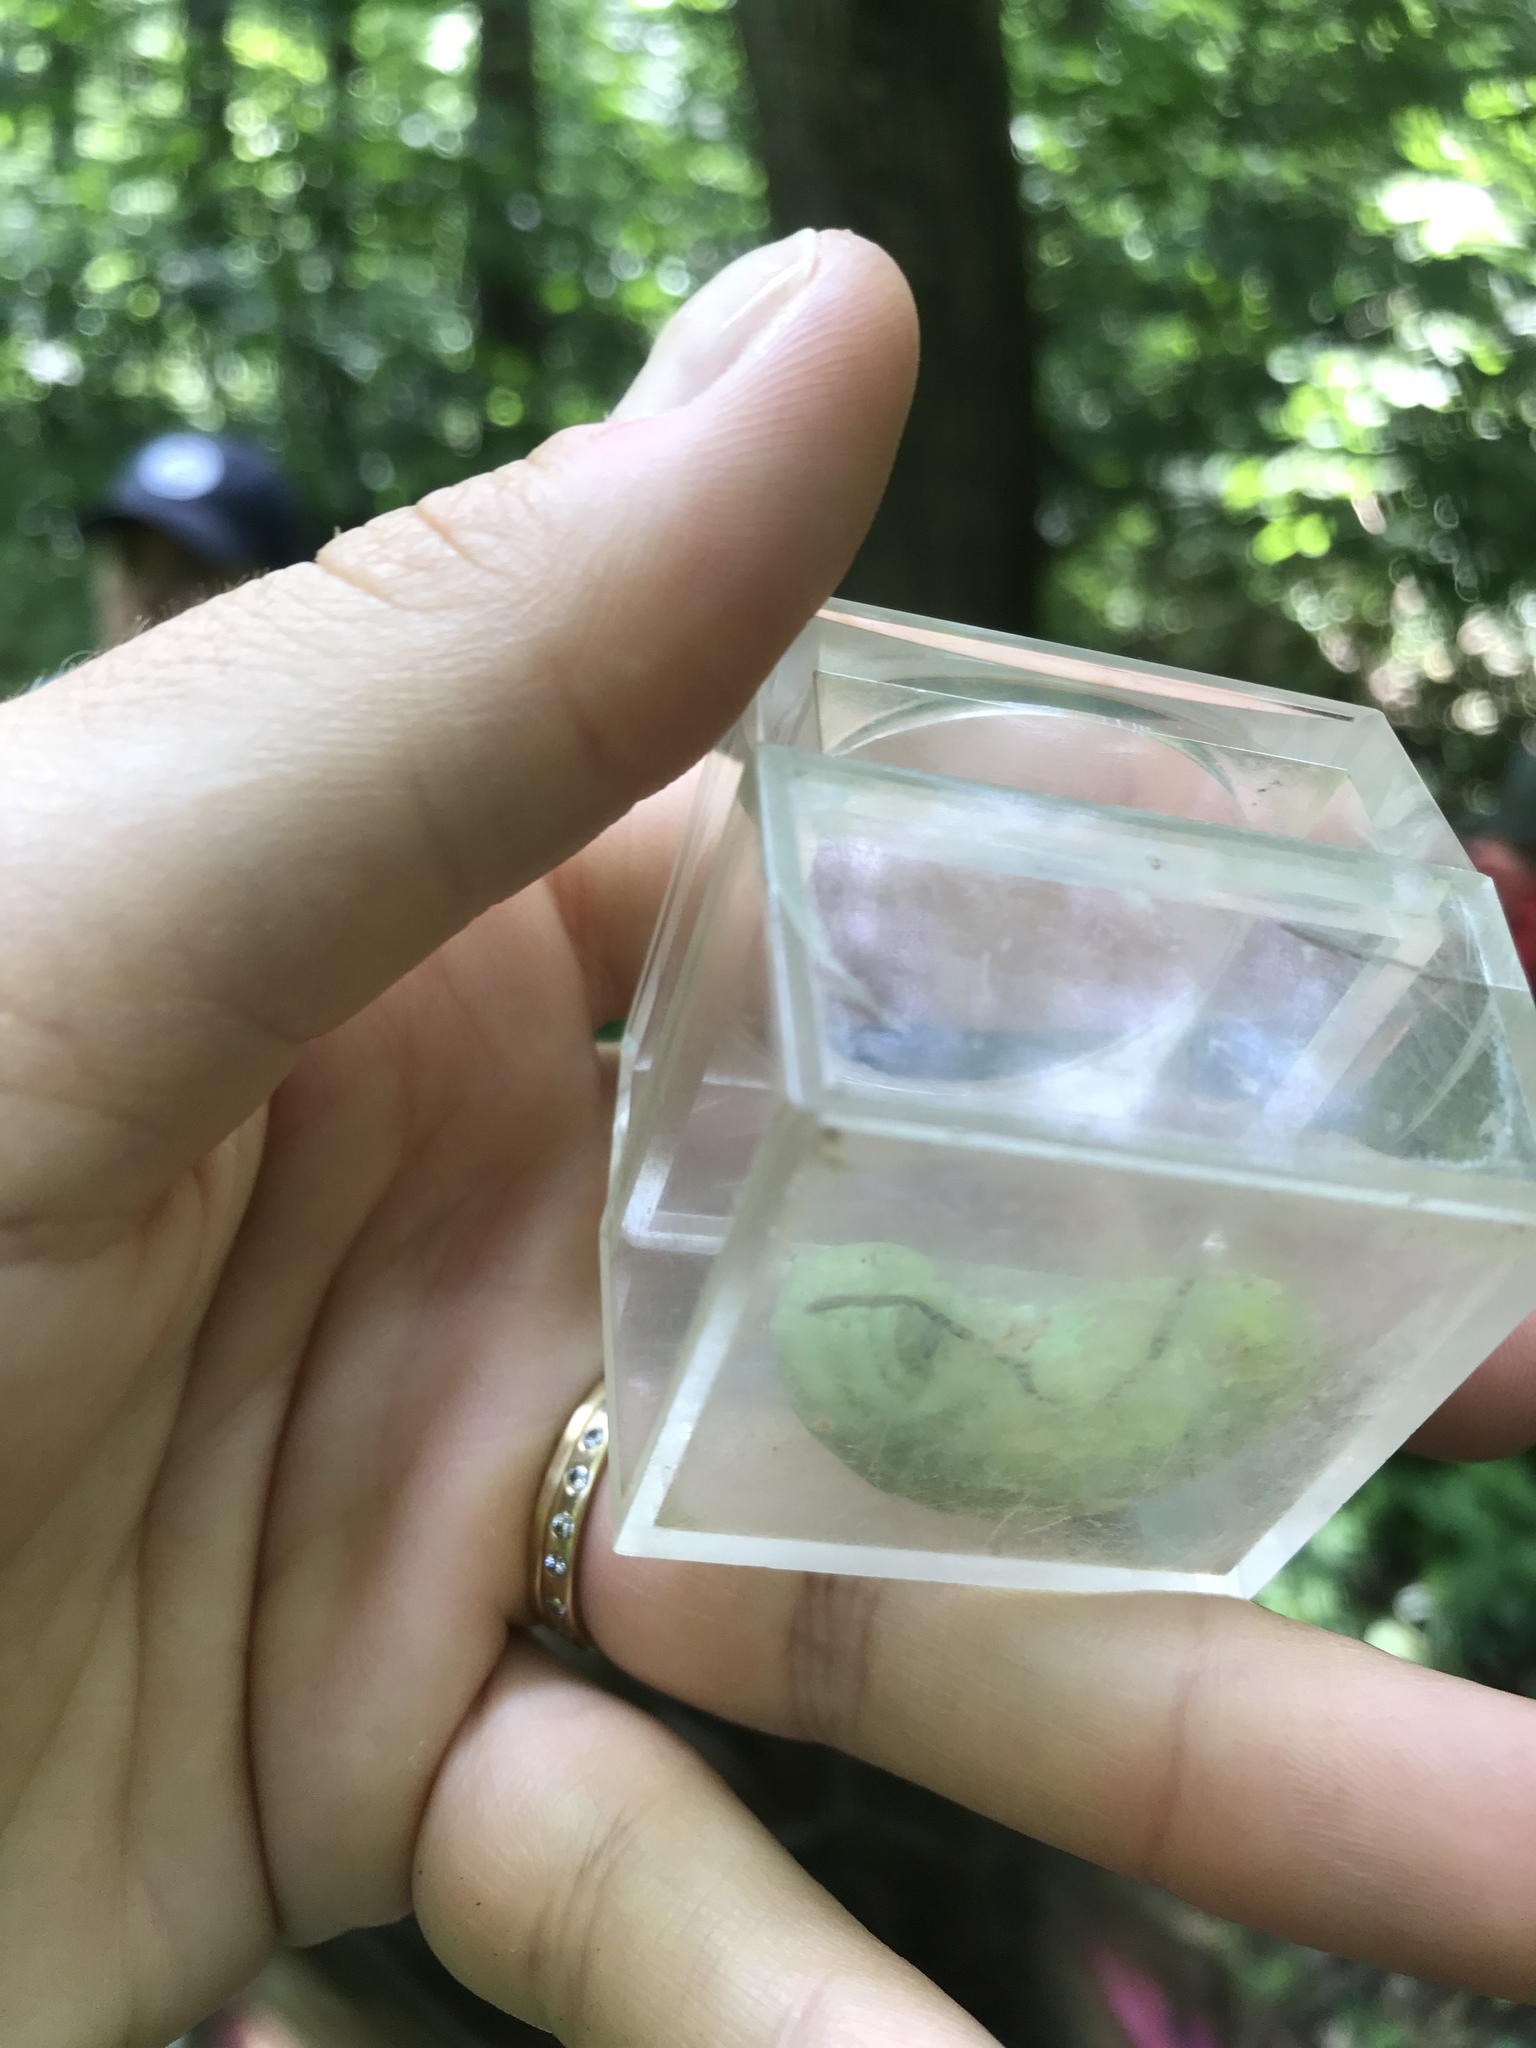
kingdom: Animalia
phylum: Arthropoda
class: Insecta
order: Lepidoptera
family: Saturniidae
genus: Callosamia
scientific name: Callosamia angulifera
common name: Tulip tree silkmoth
